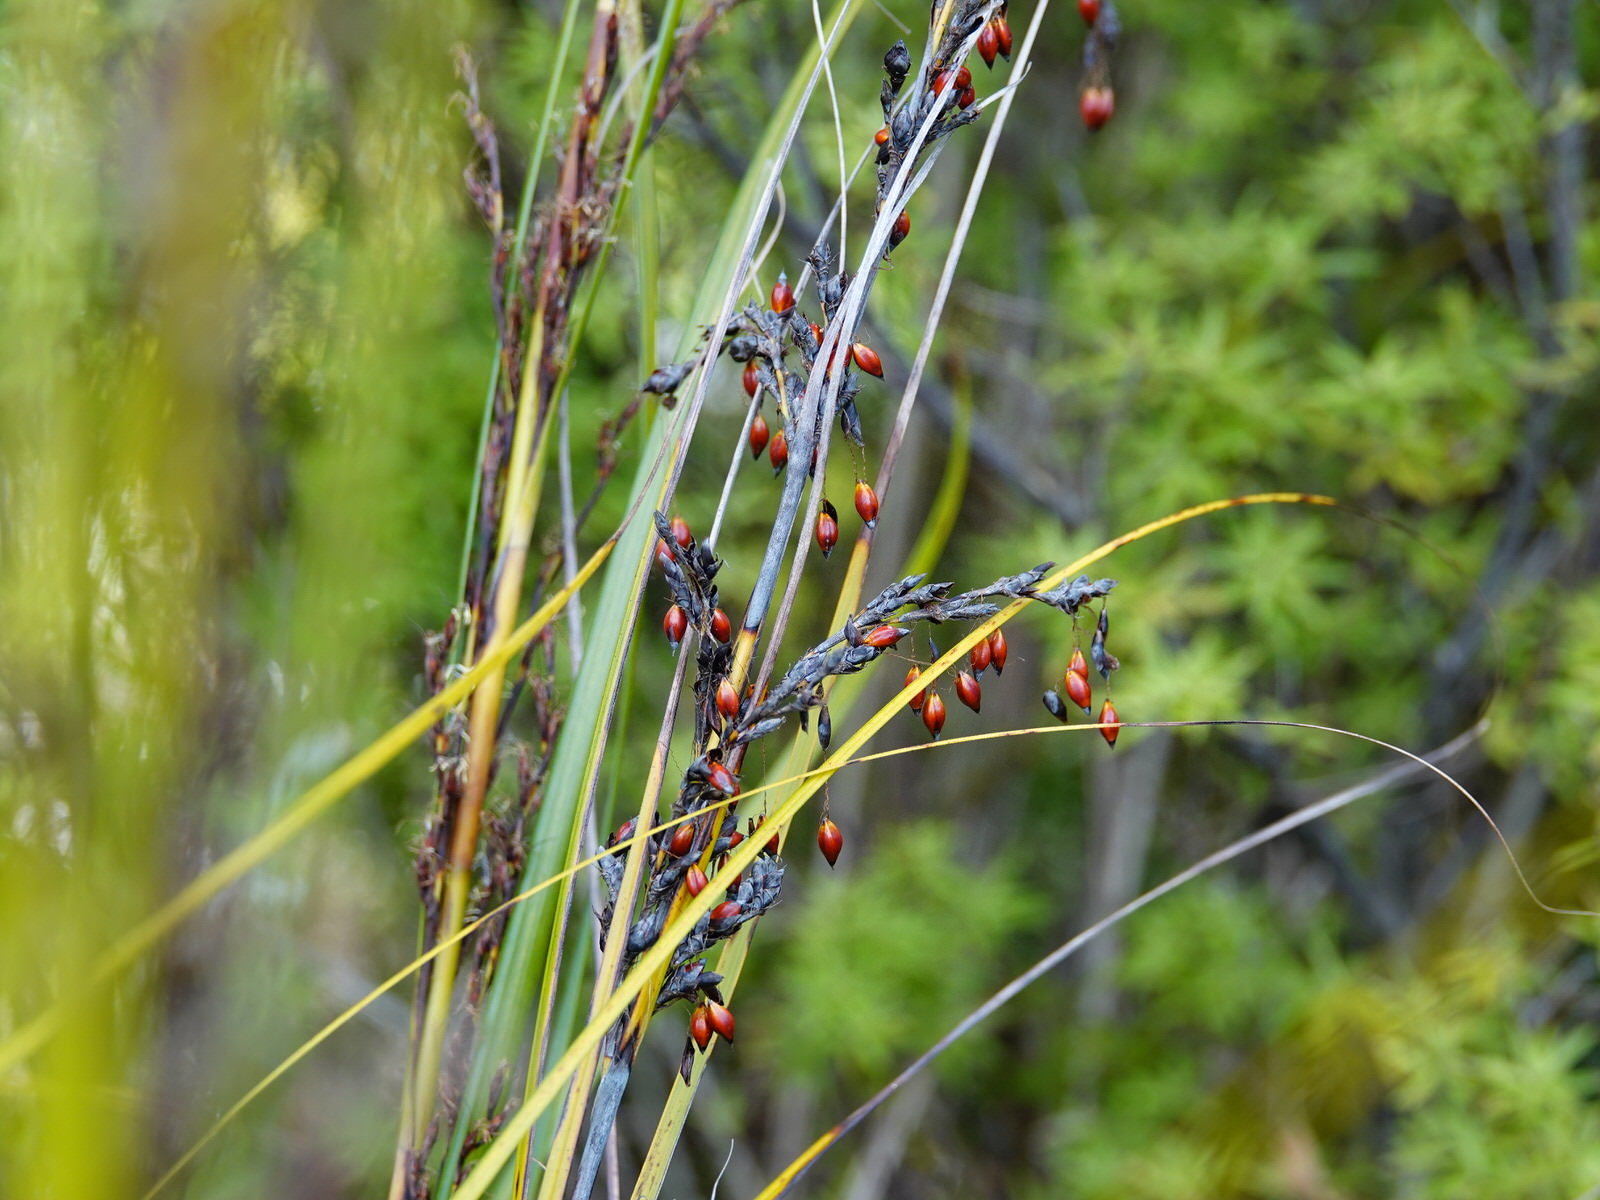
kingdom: Plantae
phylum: Tracheophyta
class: Liliopsida
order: Poales
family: Cyperaceae
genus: Gahnia
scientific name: Gahnia pauciflora
